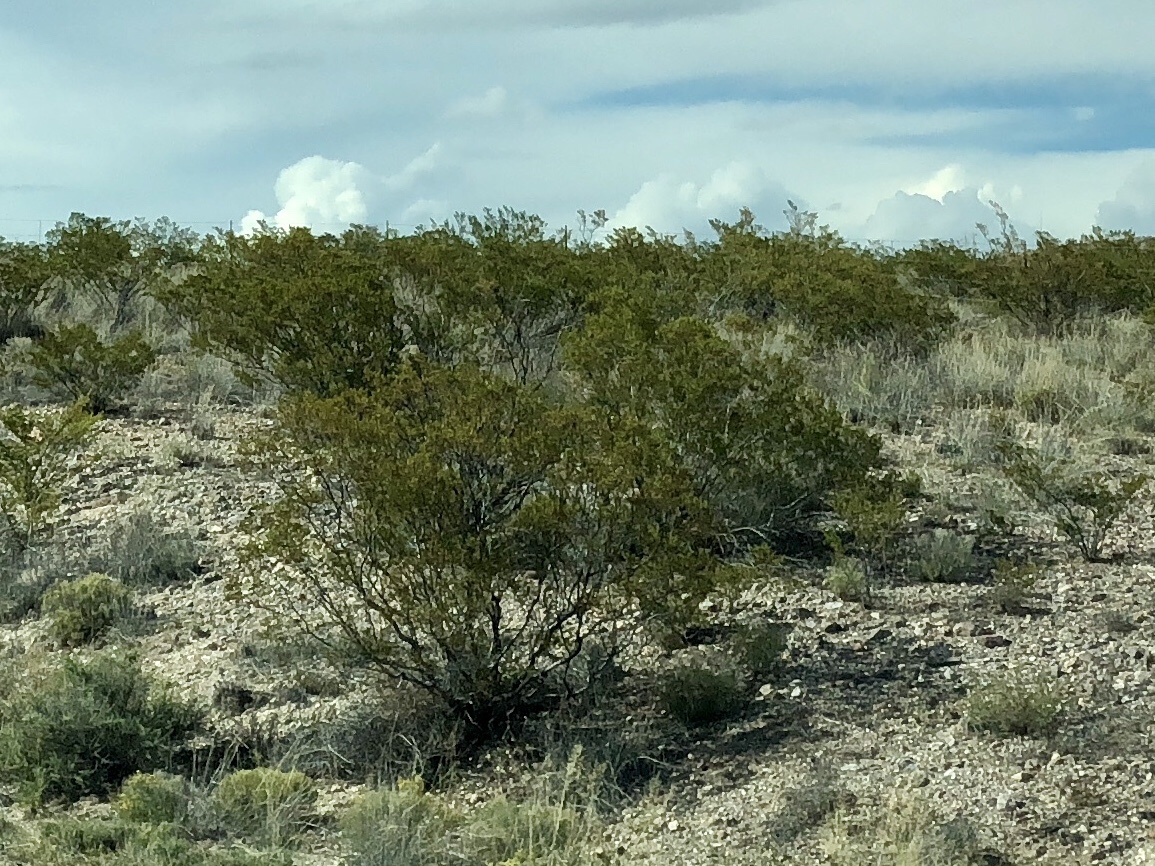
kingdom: Plantae
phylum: Tracheophyta
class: Magnoliopsida
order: Zygophyllales
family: Zygophyllaceae
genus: Larrea
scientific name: Larrea tridentata
